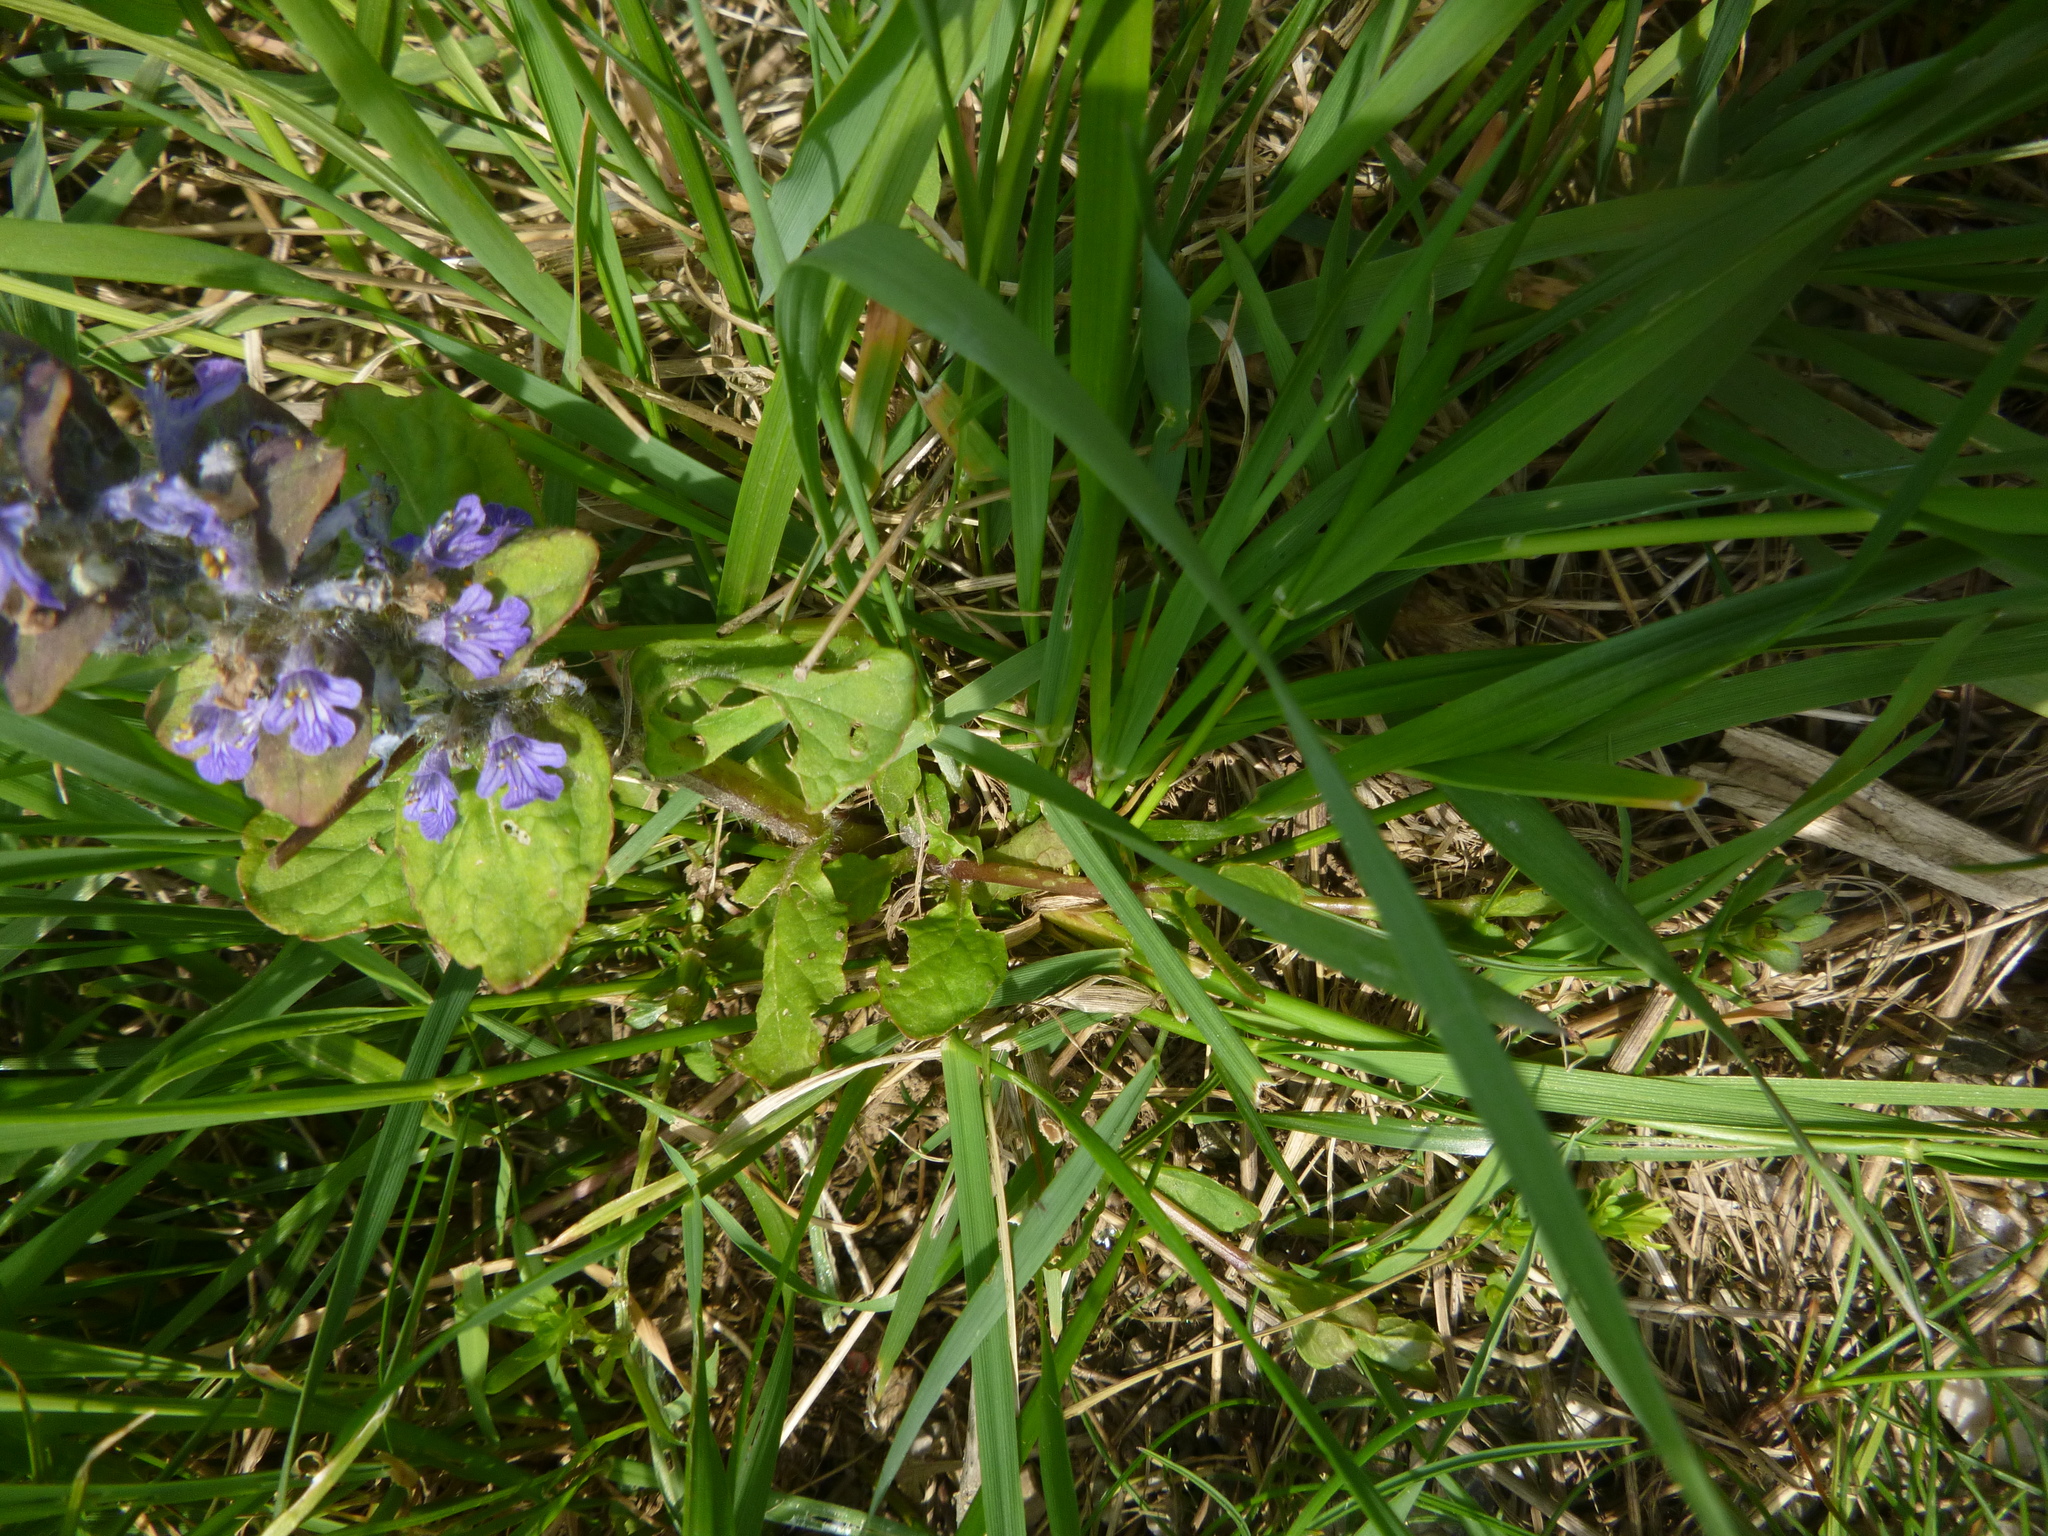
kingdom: Plantae
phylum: Tracheophyta
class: Magnoliopsida
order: Lamiales
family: Lamiaceae
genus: Ajuga
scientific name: Ajuga reptans
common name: Bugle
